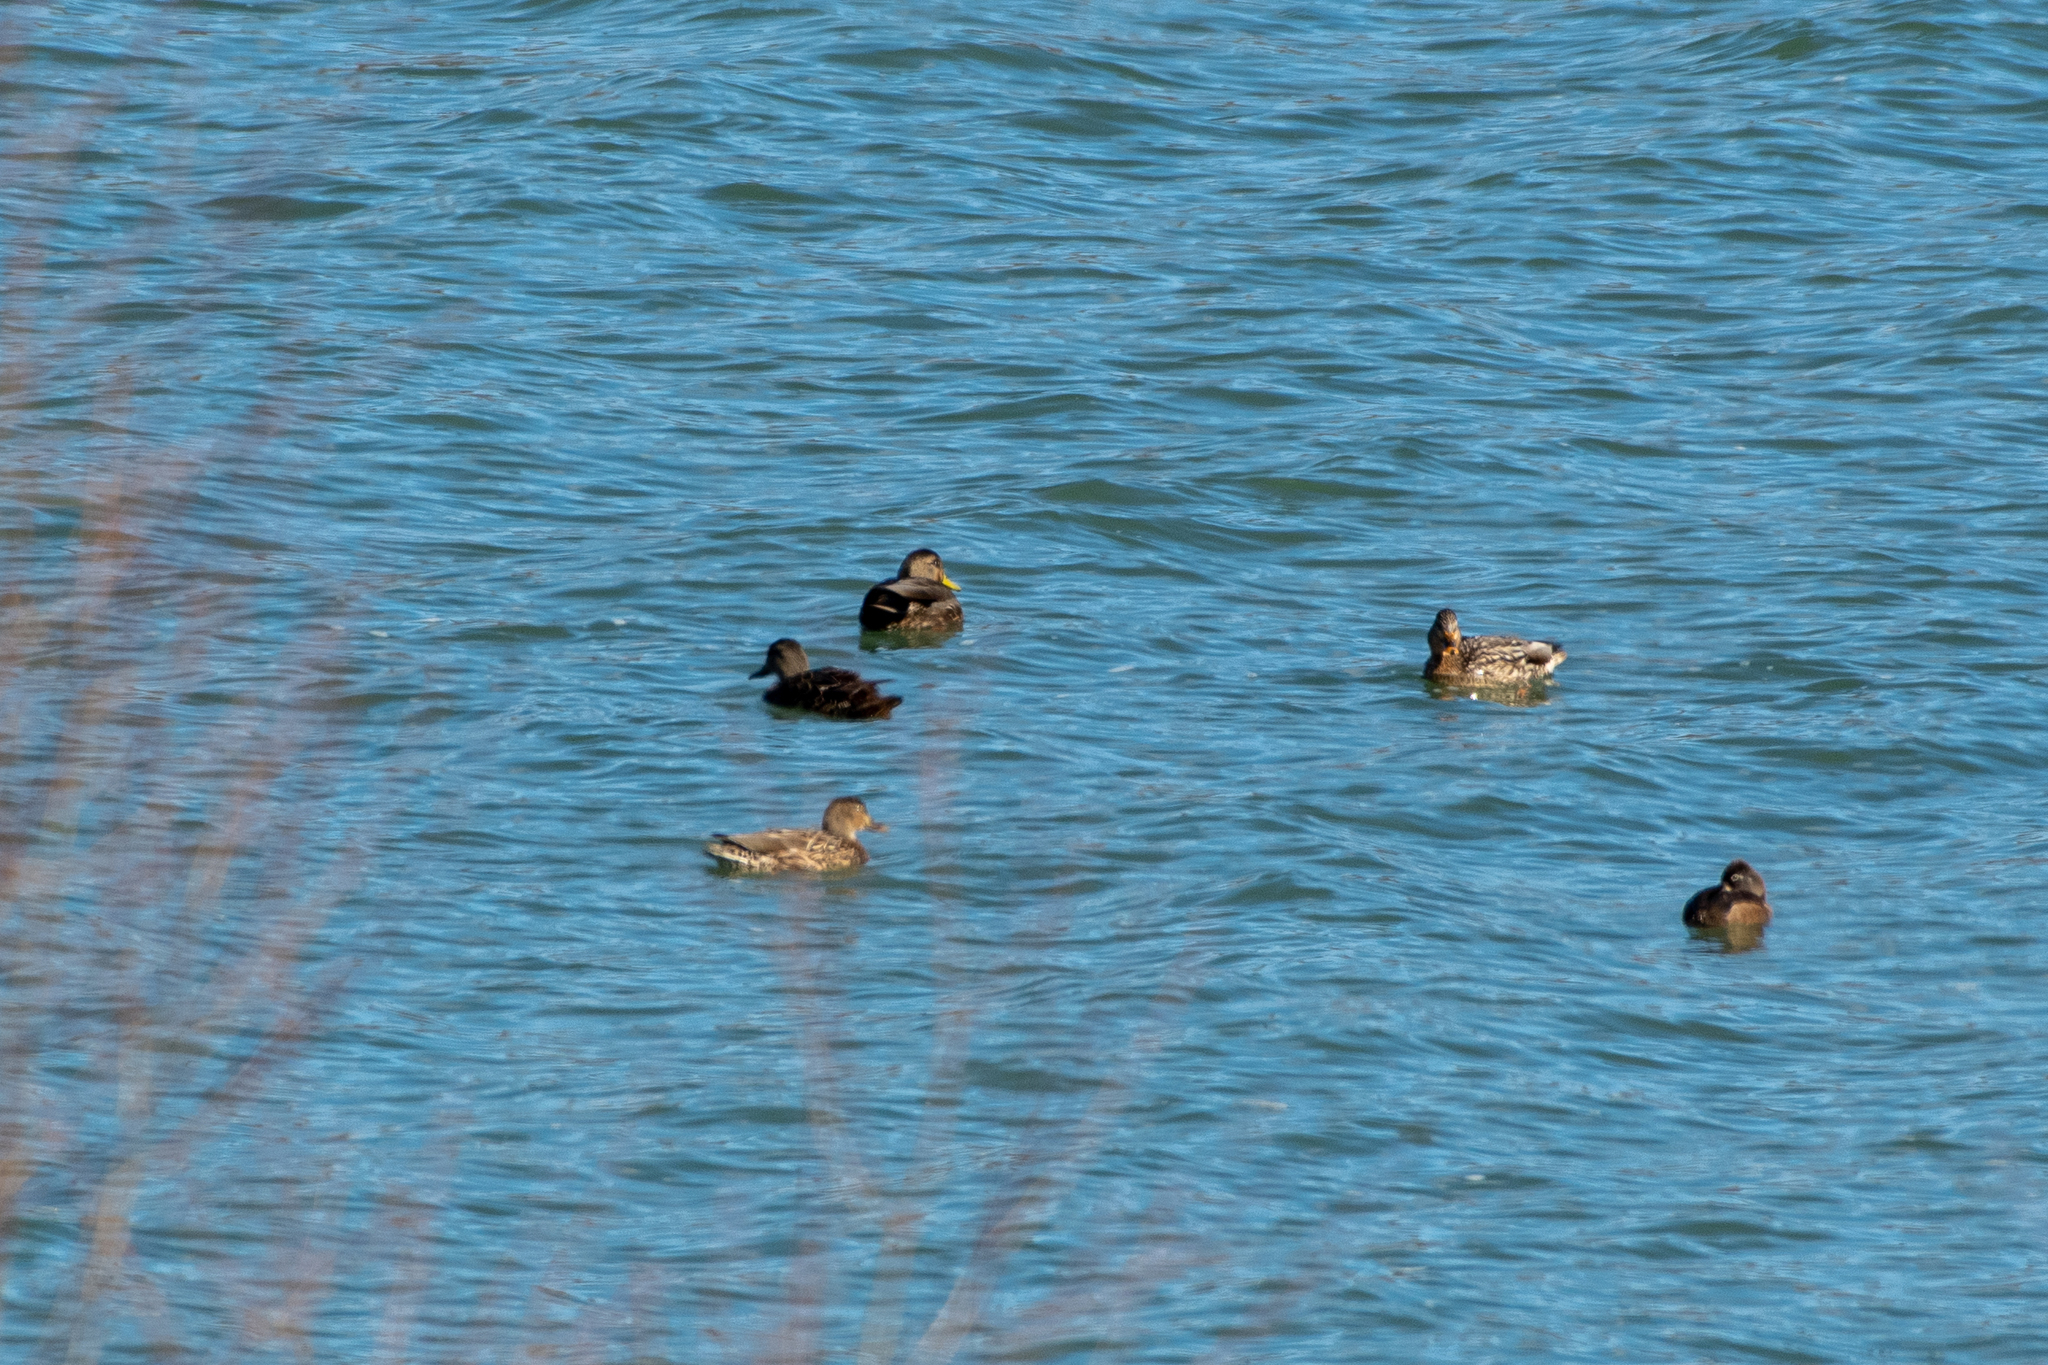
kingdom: Animalia
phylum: Chordata
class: Aves
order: Anseriformes
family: Anatidae
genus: Anas
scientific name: Anas
